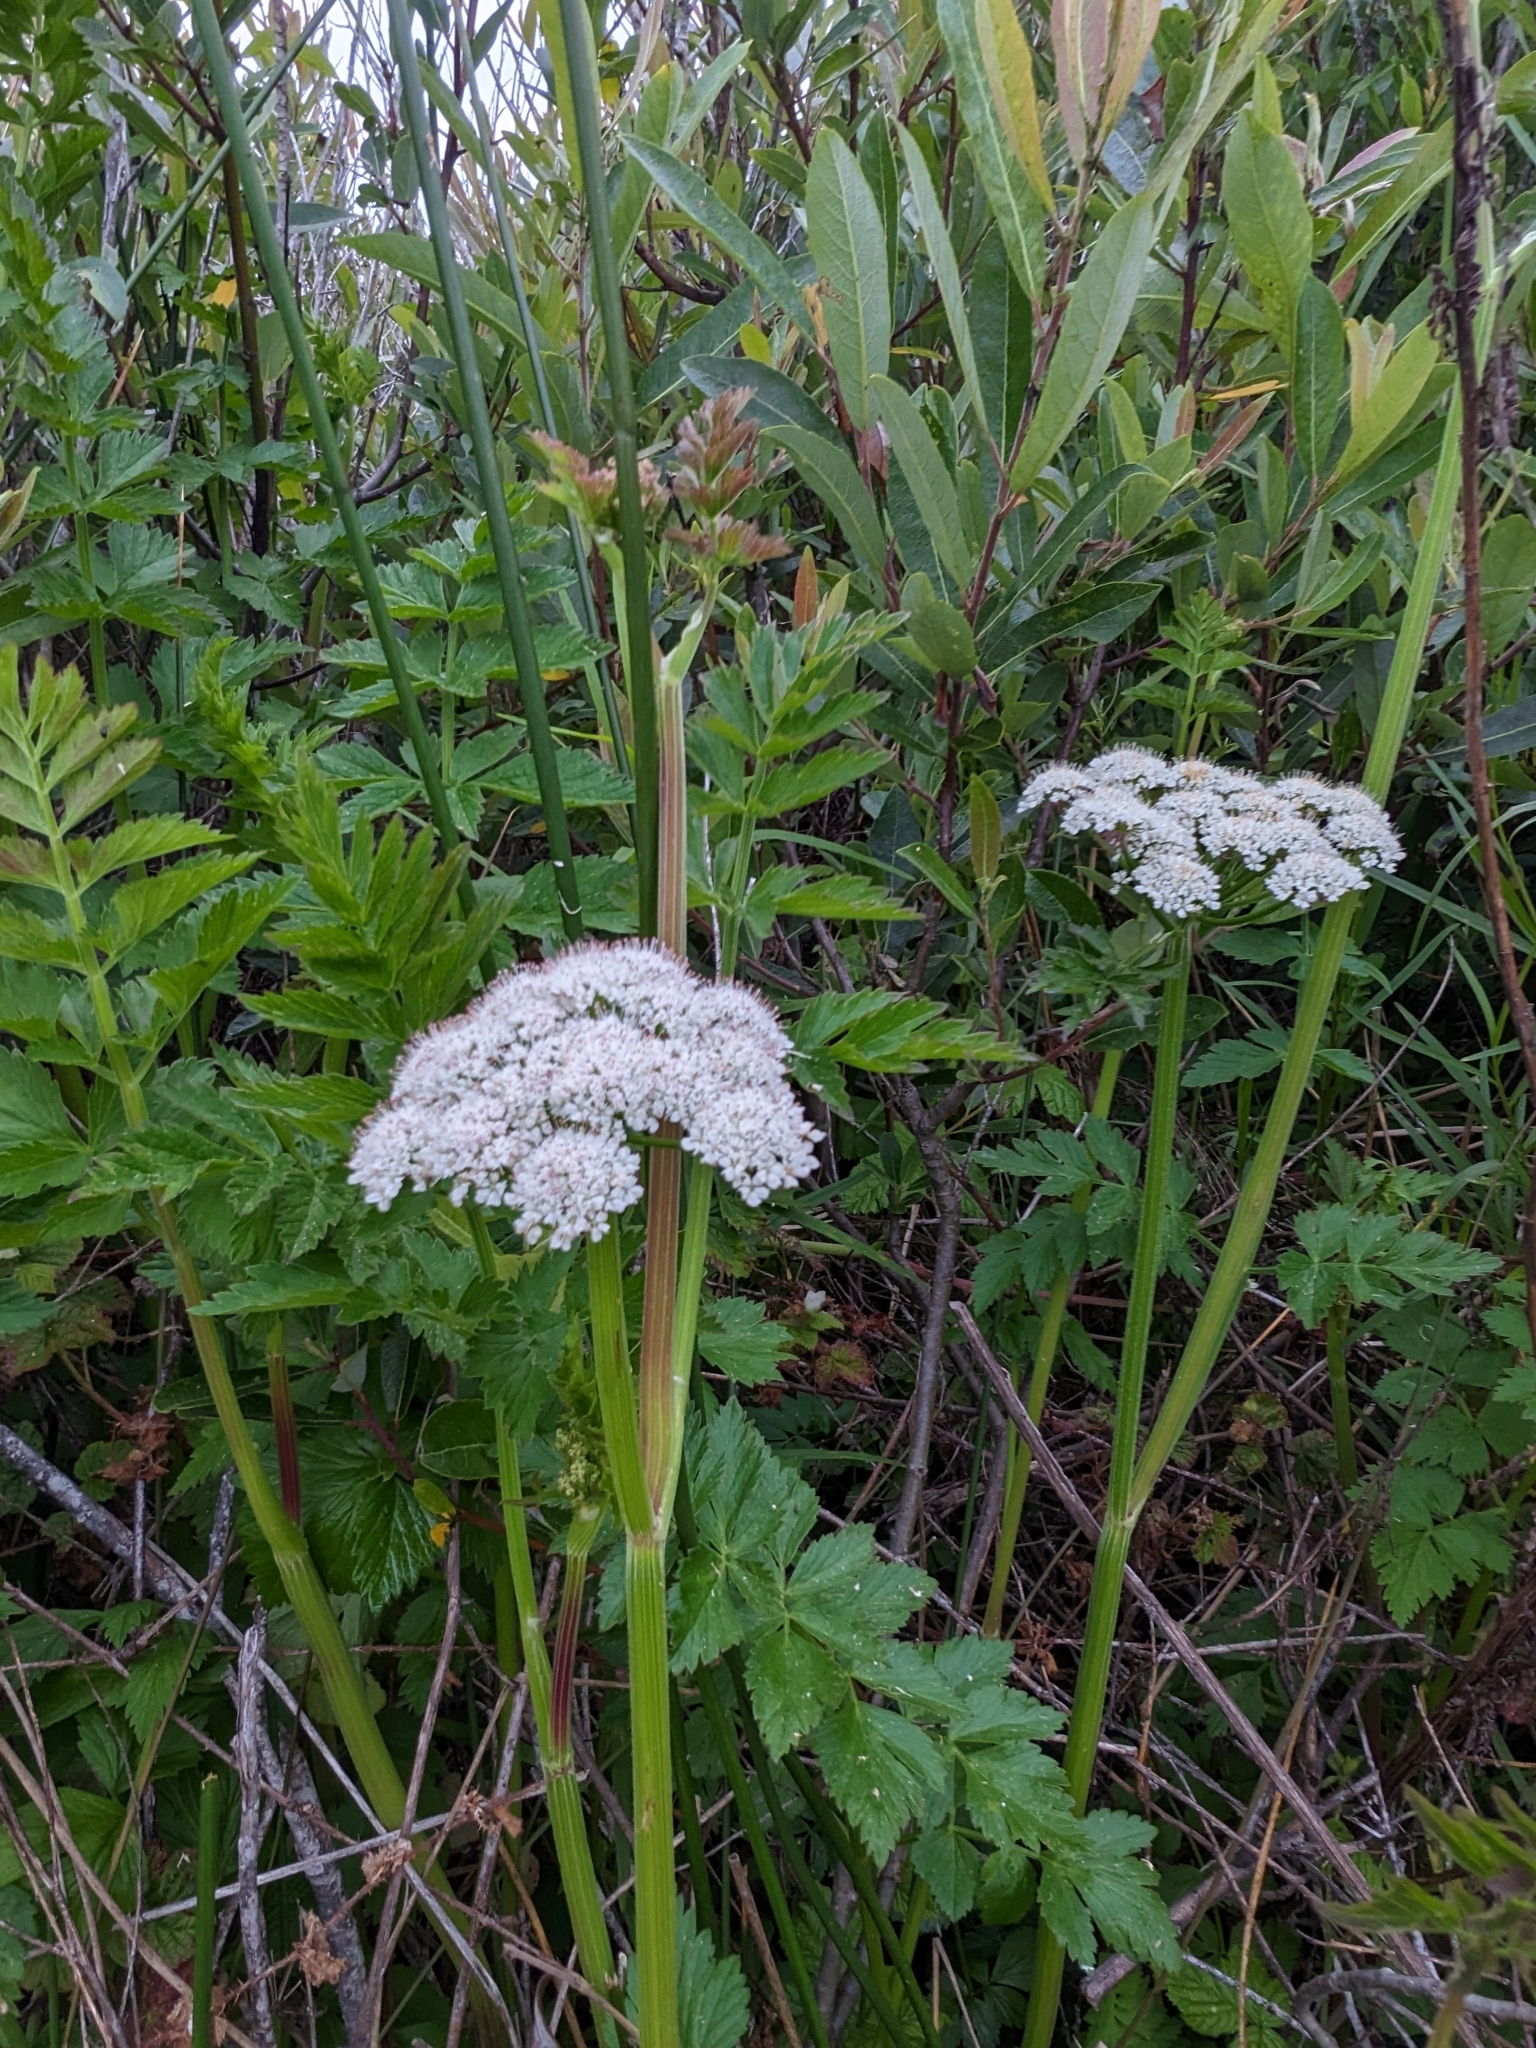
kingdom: Plantae
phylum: Tracheophyta
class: Magnoliopsida
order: Apiales
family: Apiaceae
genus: Oenanthe
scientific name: Oenanthe sarmentosa
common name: American water-parsley
